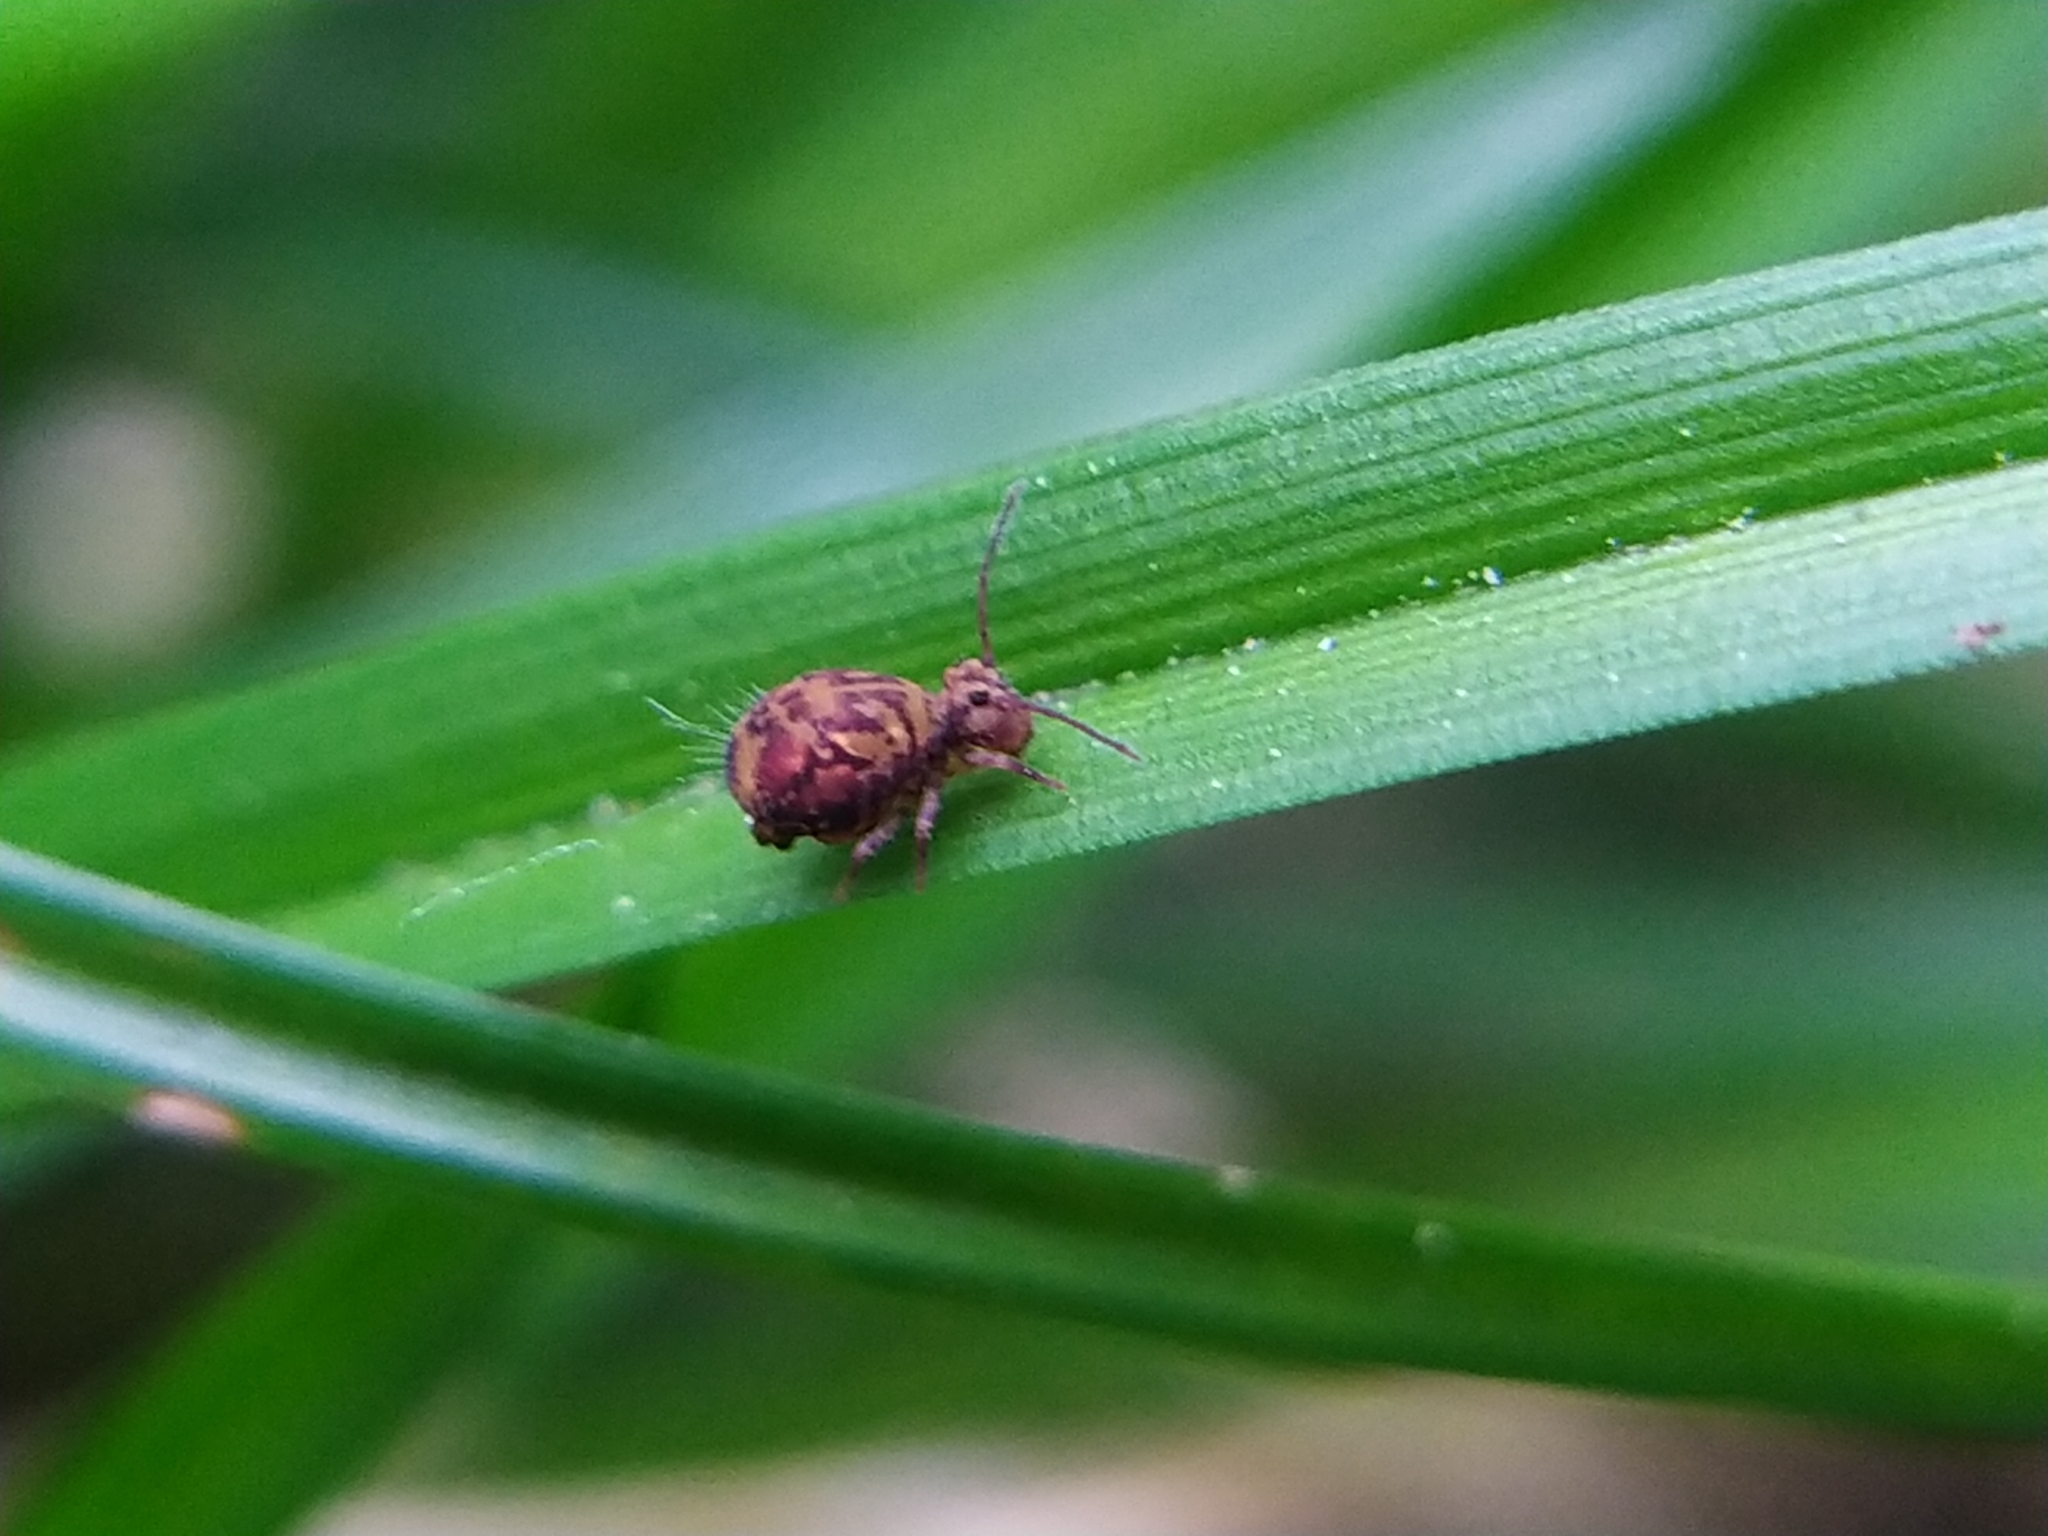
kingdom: Animalia
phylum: Arthropoda
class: Collembola
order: Symphypleona
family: Dicyrtomidae
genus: Dicyrtomina
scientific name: Dicyrtomina ornata
